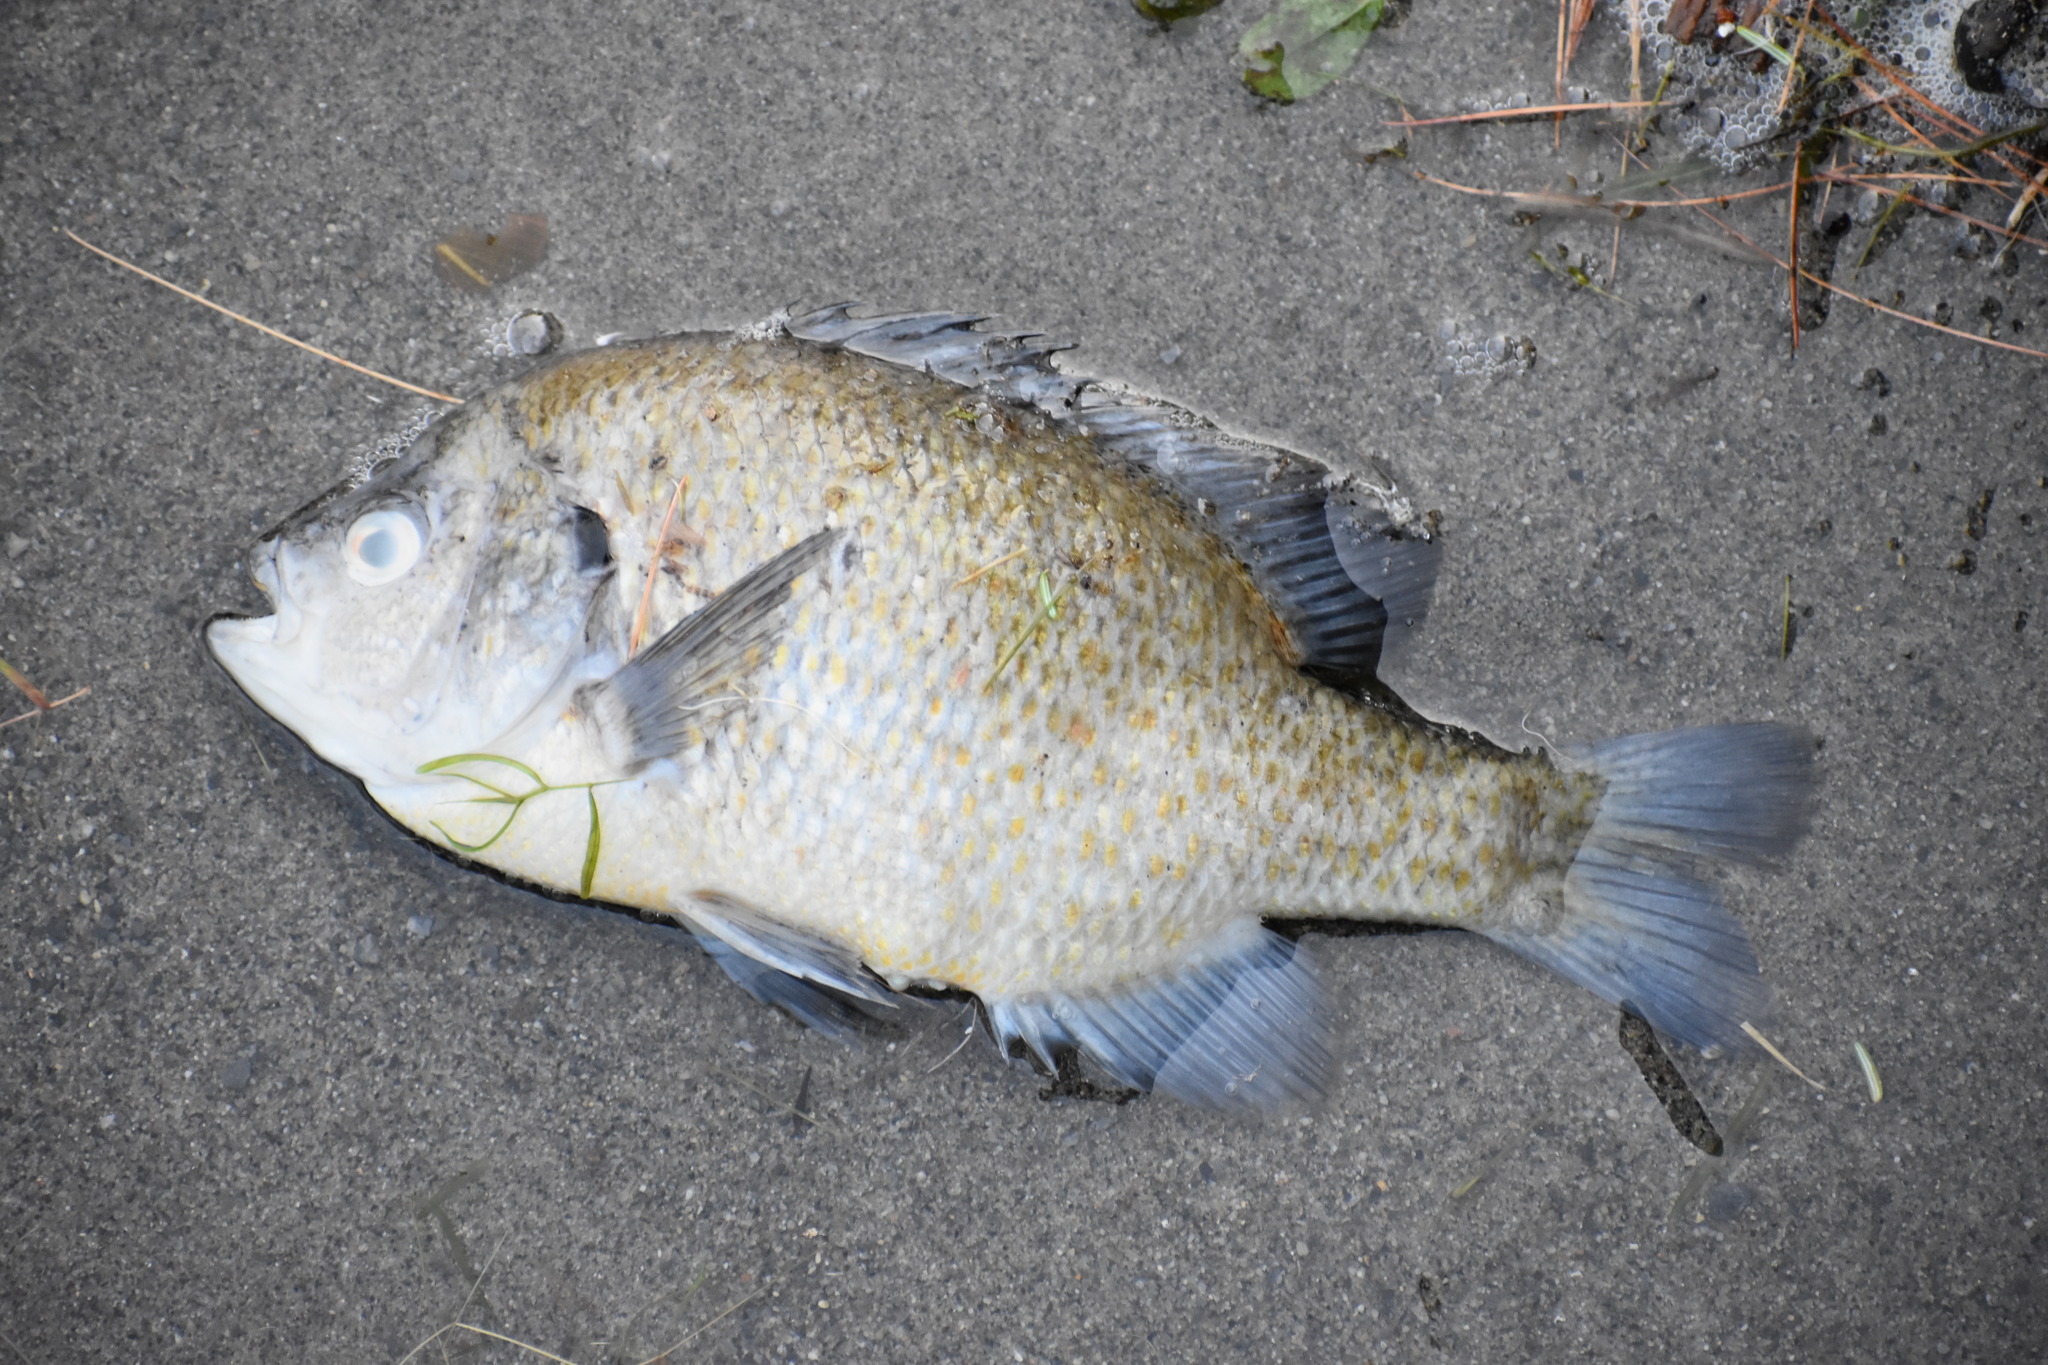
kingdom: Animalia
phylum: Chordata
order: Perciformes
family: Centrarchidae
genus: Lepomis
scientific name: Lepomis gibbosus
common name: Pumpkinseed
